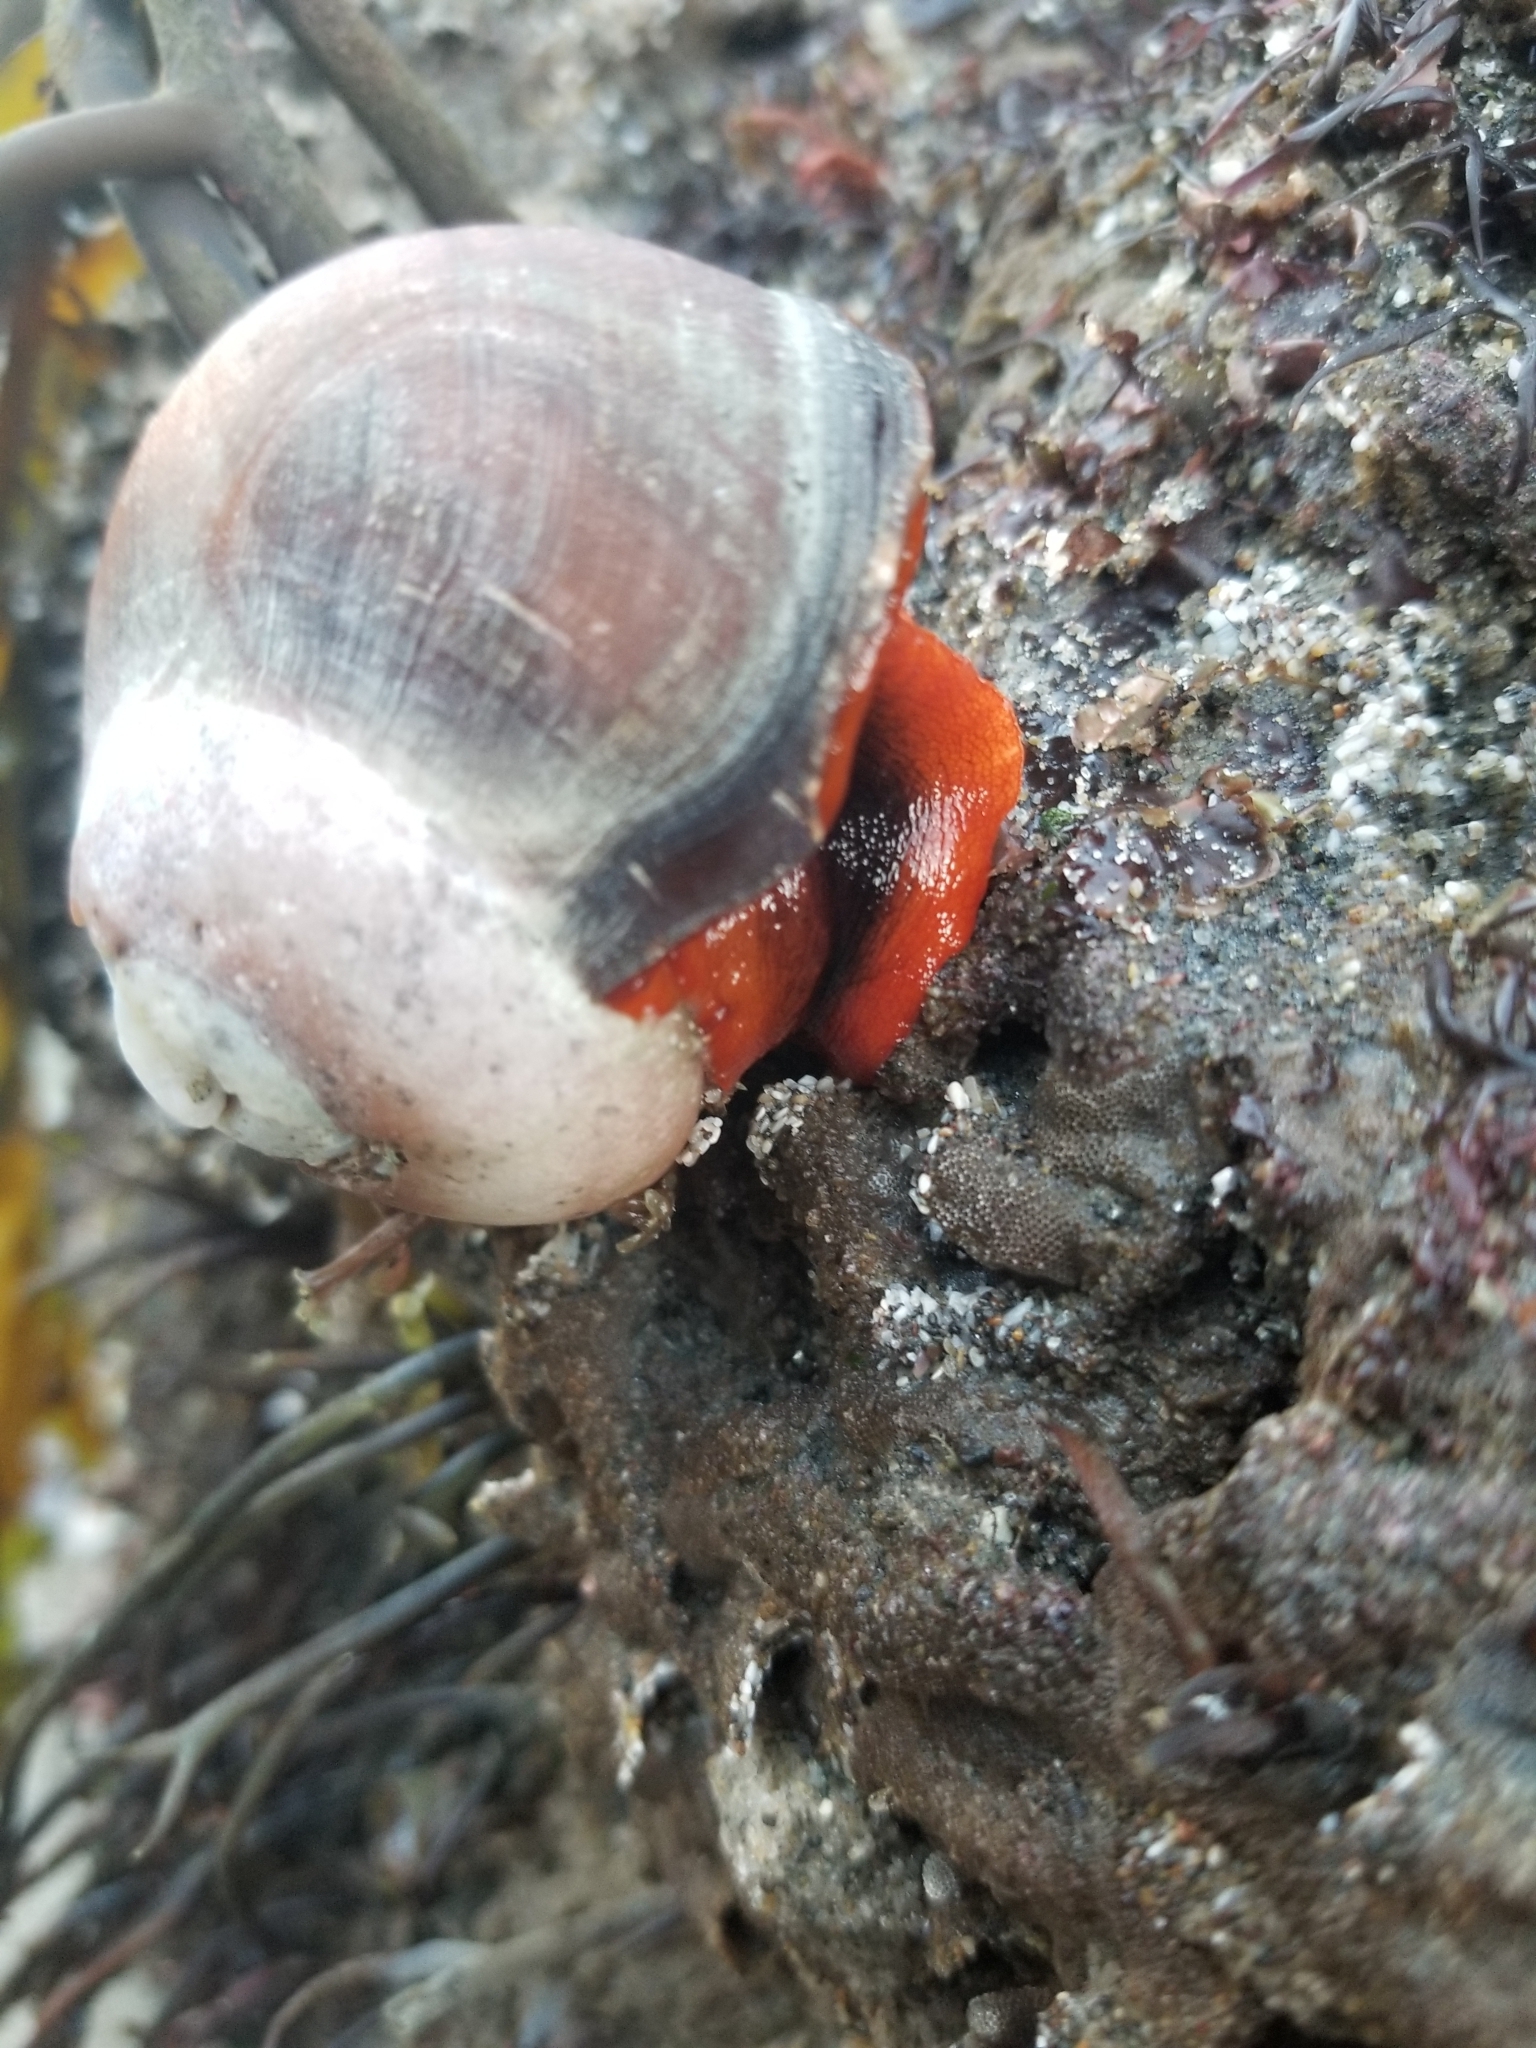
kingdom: Animalia
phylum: Mollusca
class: Gastropoda
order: Trochida
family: Tegulidae
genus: Norrisia
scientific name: Norrisia norrisii
